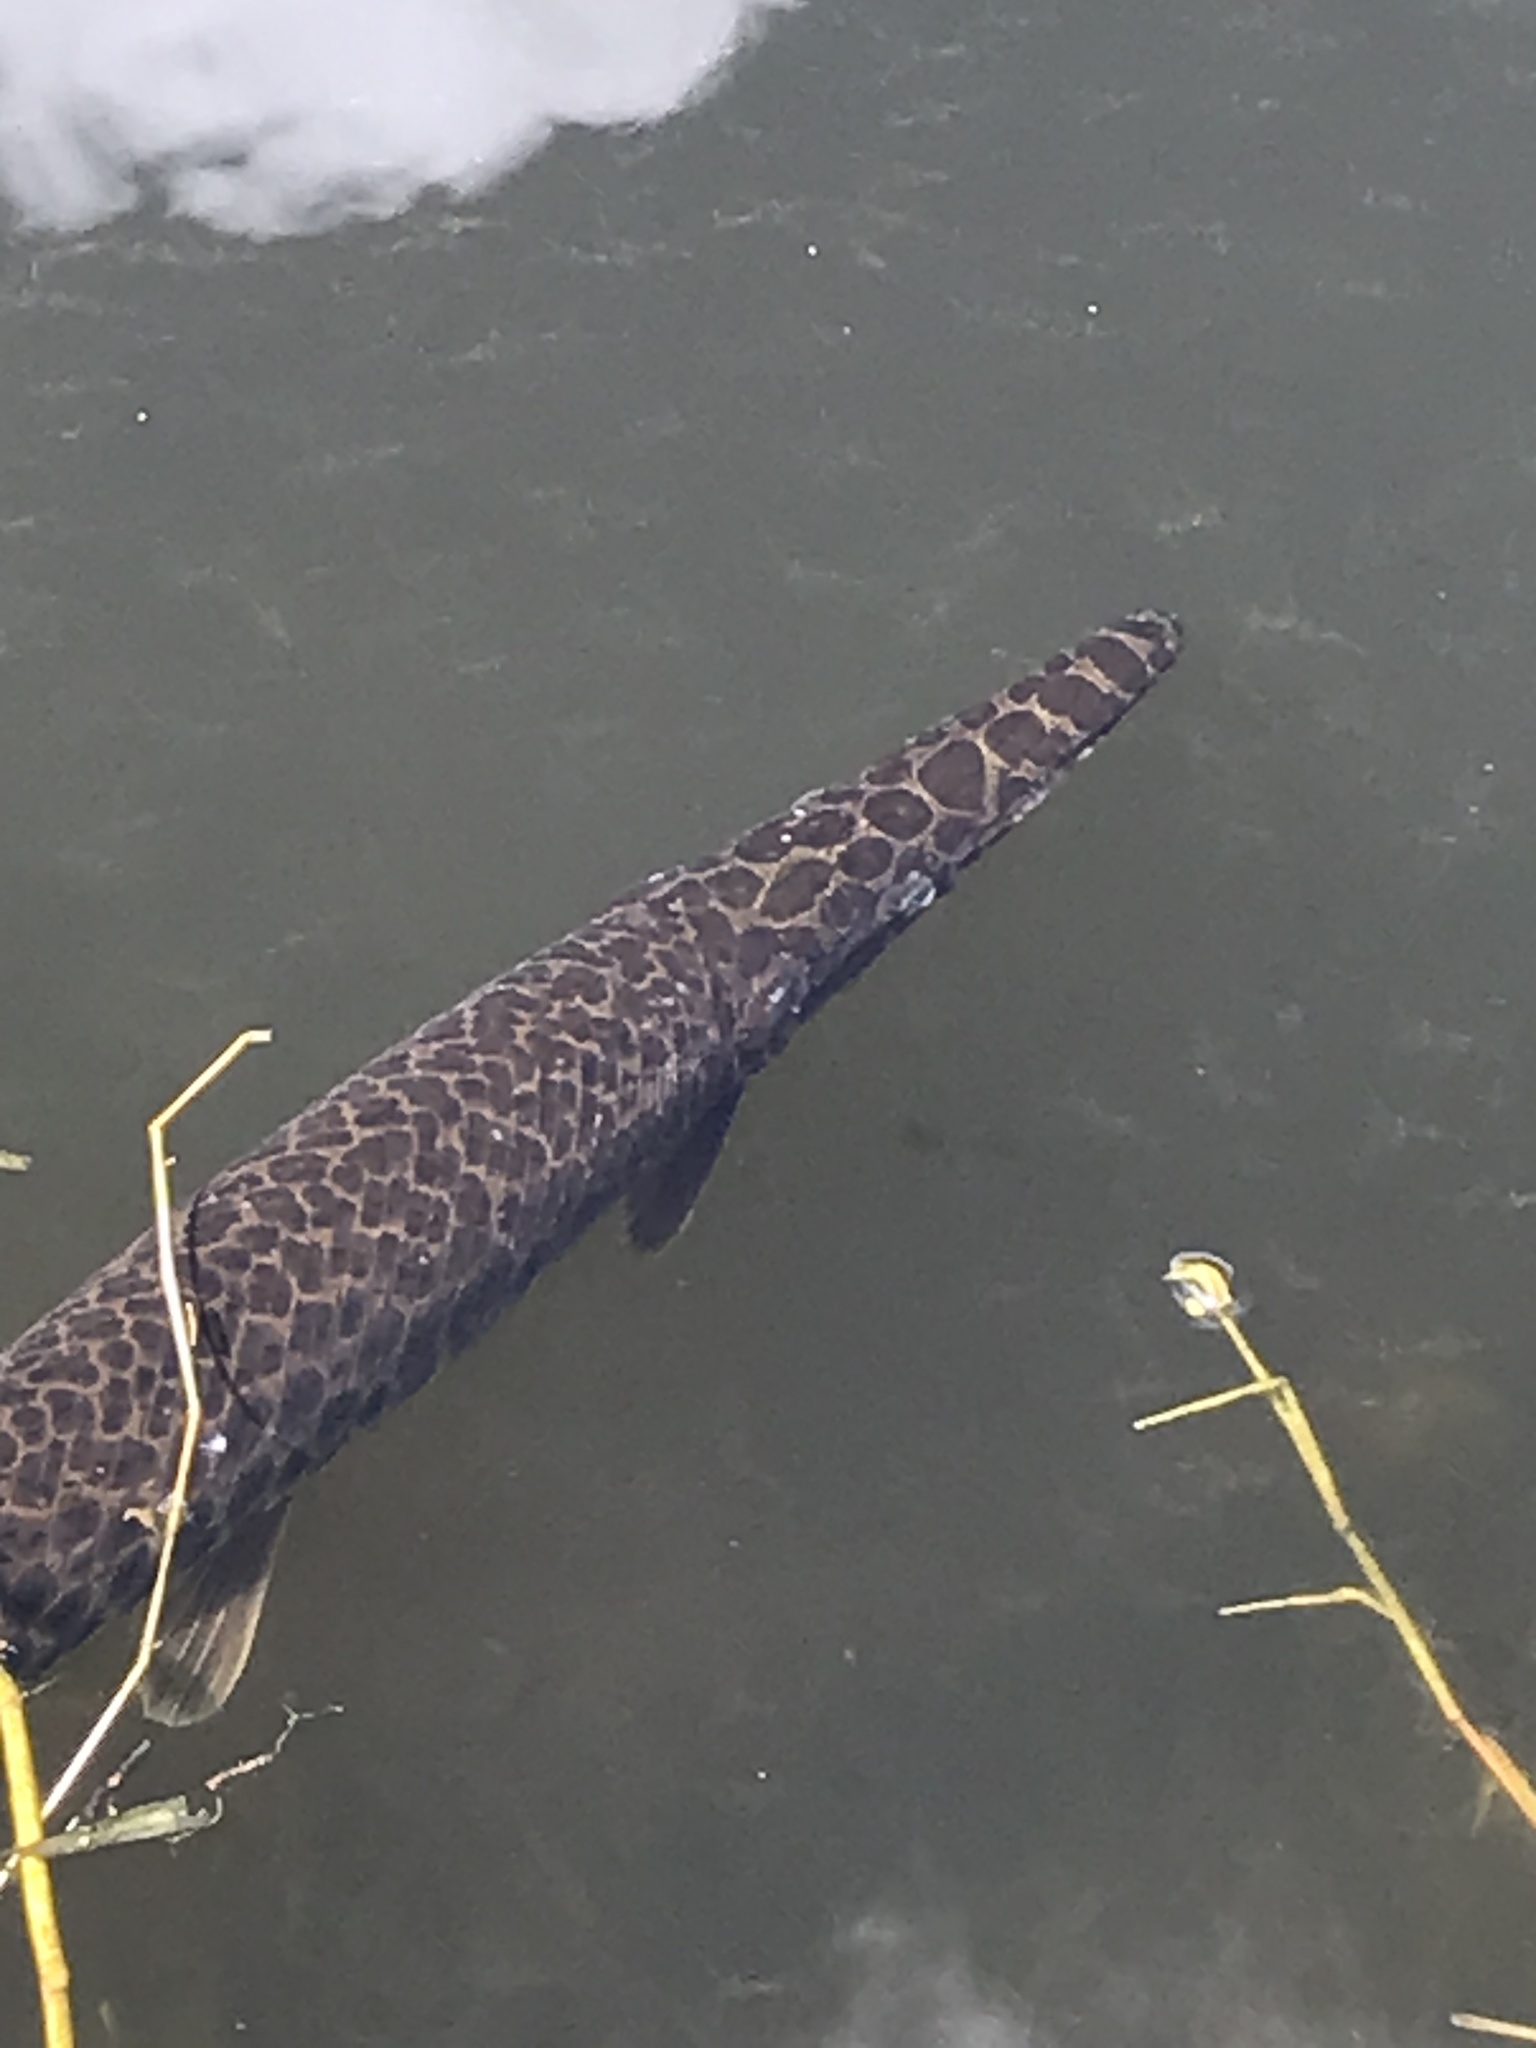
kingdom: Animalia
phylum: Chordata
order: Lepisosteiformes
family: Lepisosteidae
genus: Lepisosteus
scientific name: Lepisosteus platyrhincus
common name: Florida gar
